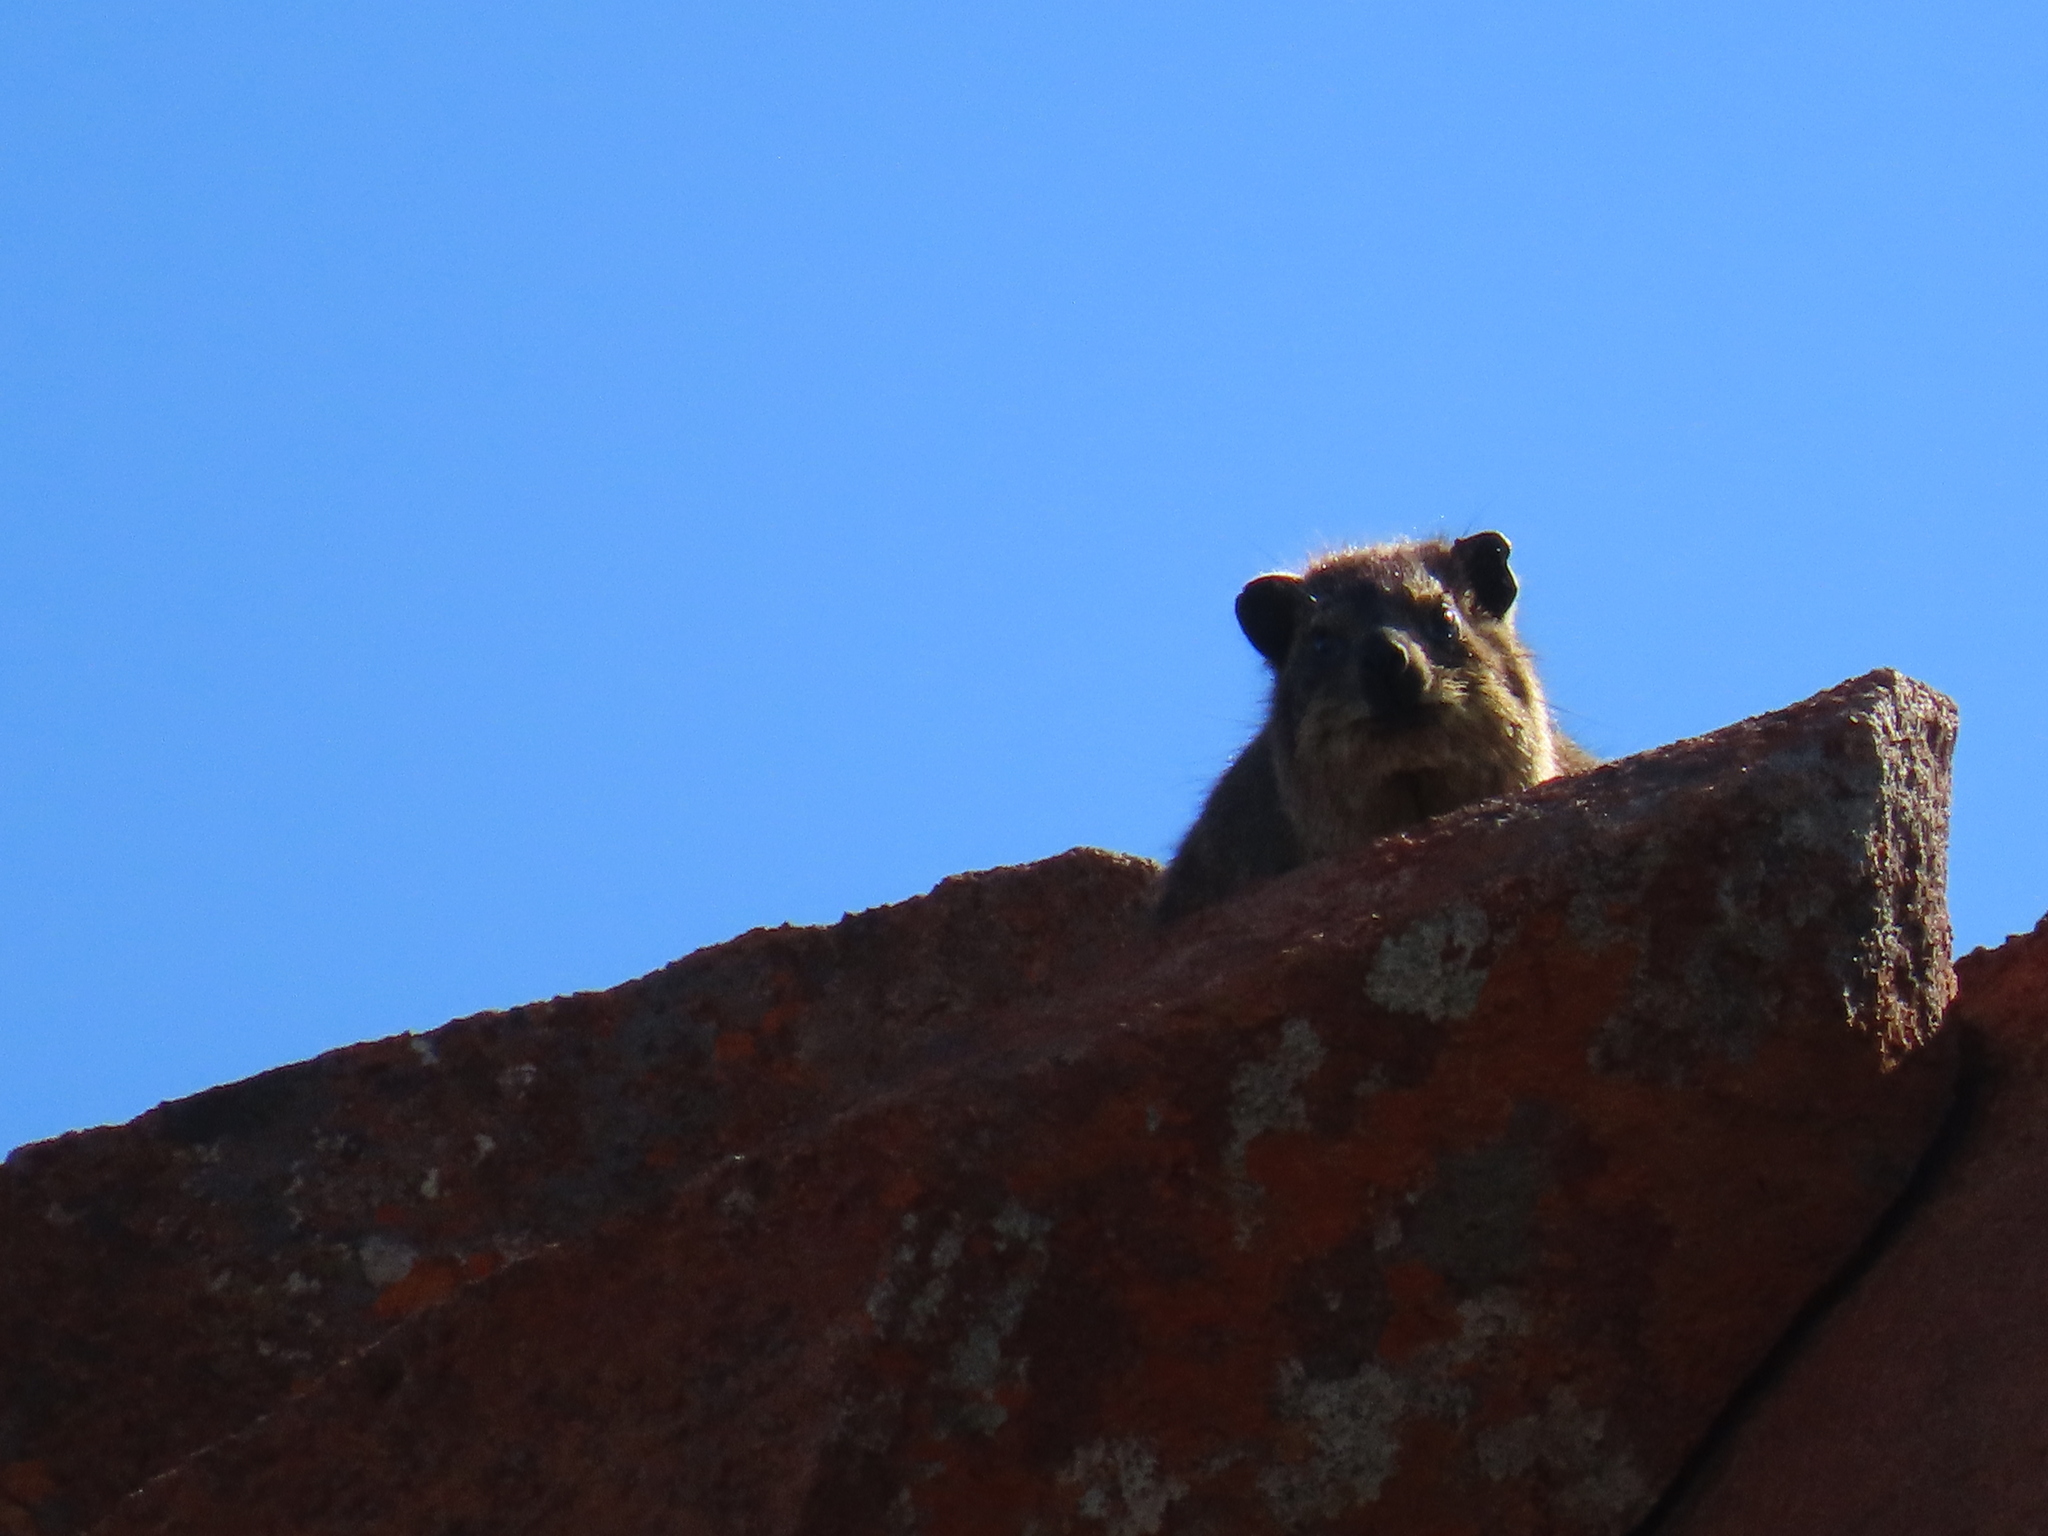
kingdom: Animalia
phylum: Chordata
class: Mammalia
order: Hyracoidea
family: Procaviidae
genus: Procavia
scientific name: Procavia capensis
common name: Rock hyrax
